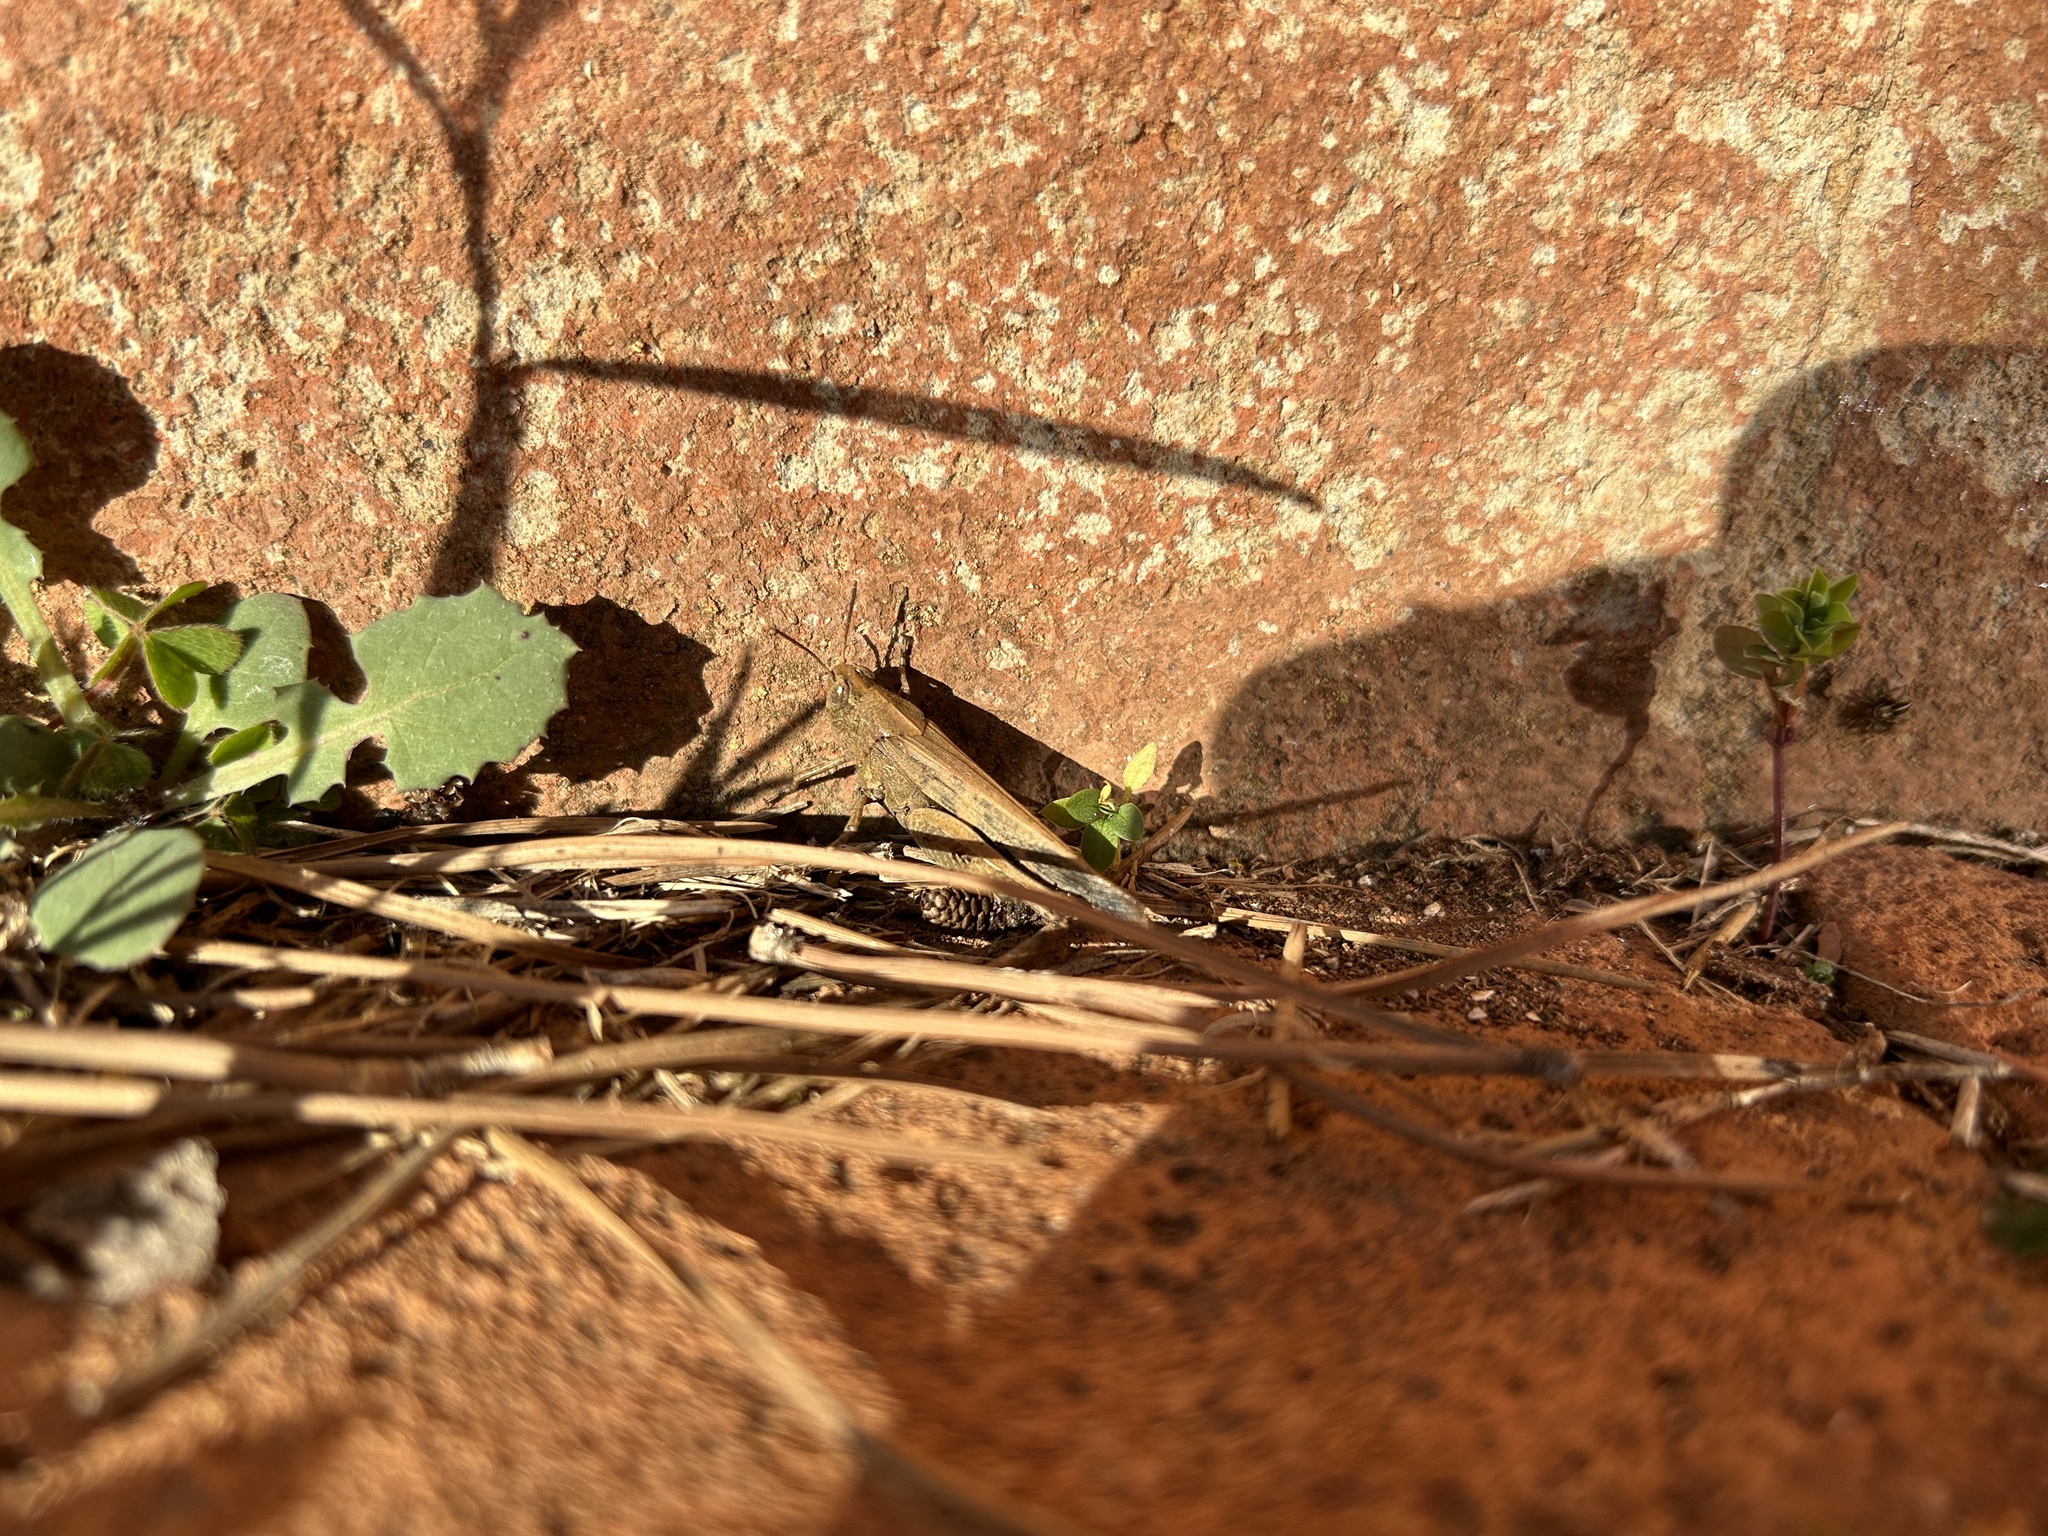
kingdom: Animalia
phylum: Arthropoda
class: Insecta
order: Orthoptera
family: Acrididae
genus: Aiolopus
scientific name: Aiolopus strepens
